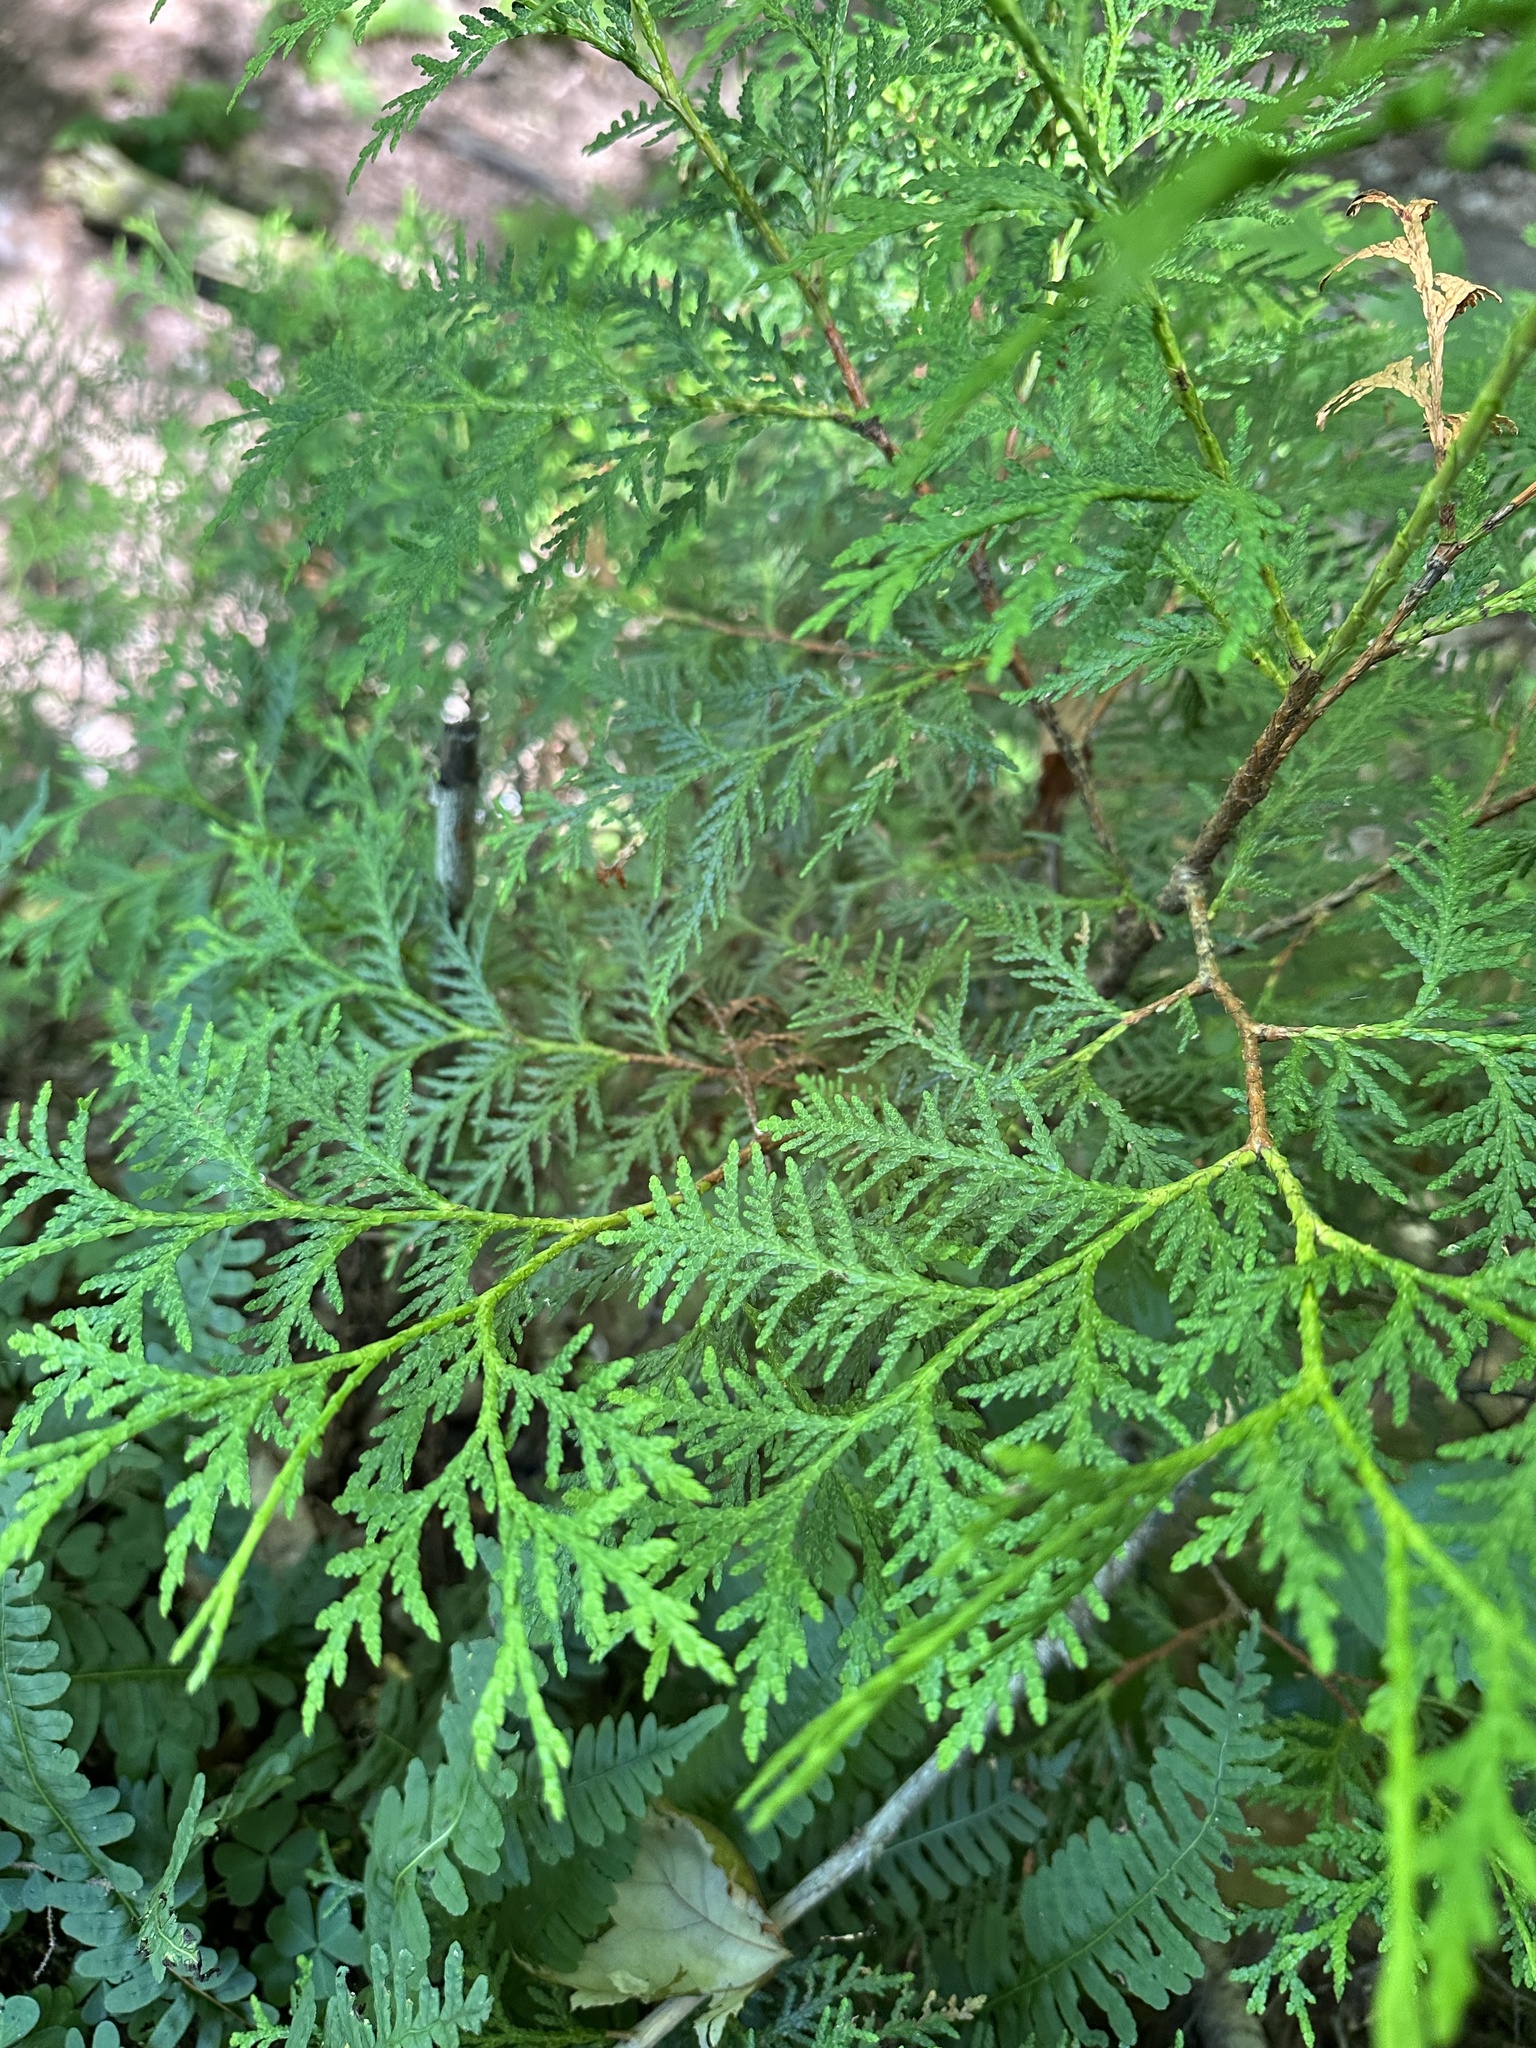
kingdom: Plantae
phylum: Tracheophyta
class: Pinopsida
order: Pinales
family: Cupressaceae
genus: Thuja
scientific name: Thuja occidentalis
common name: Northern white-cedar
